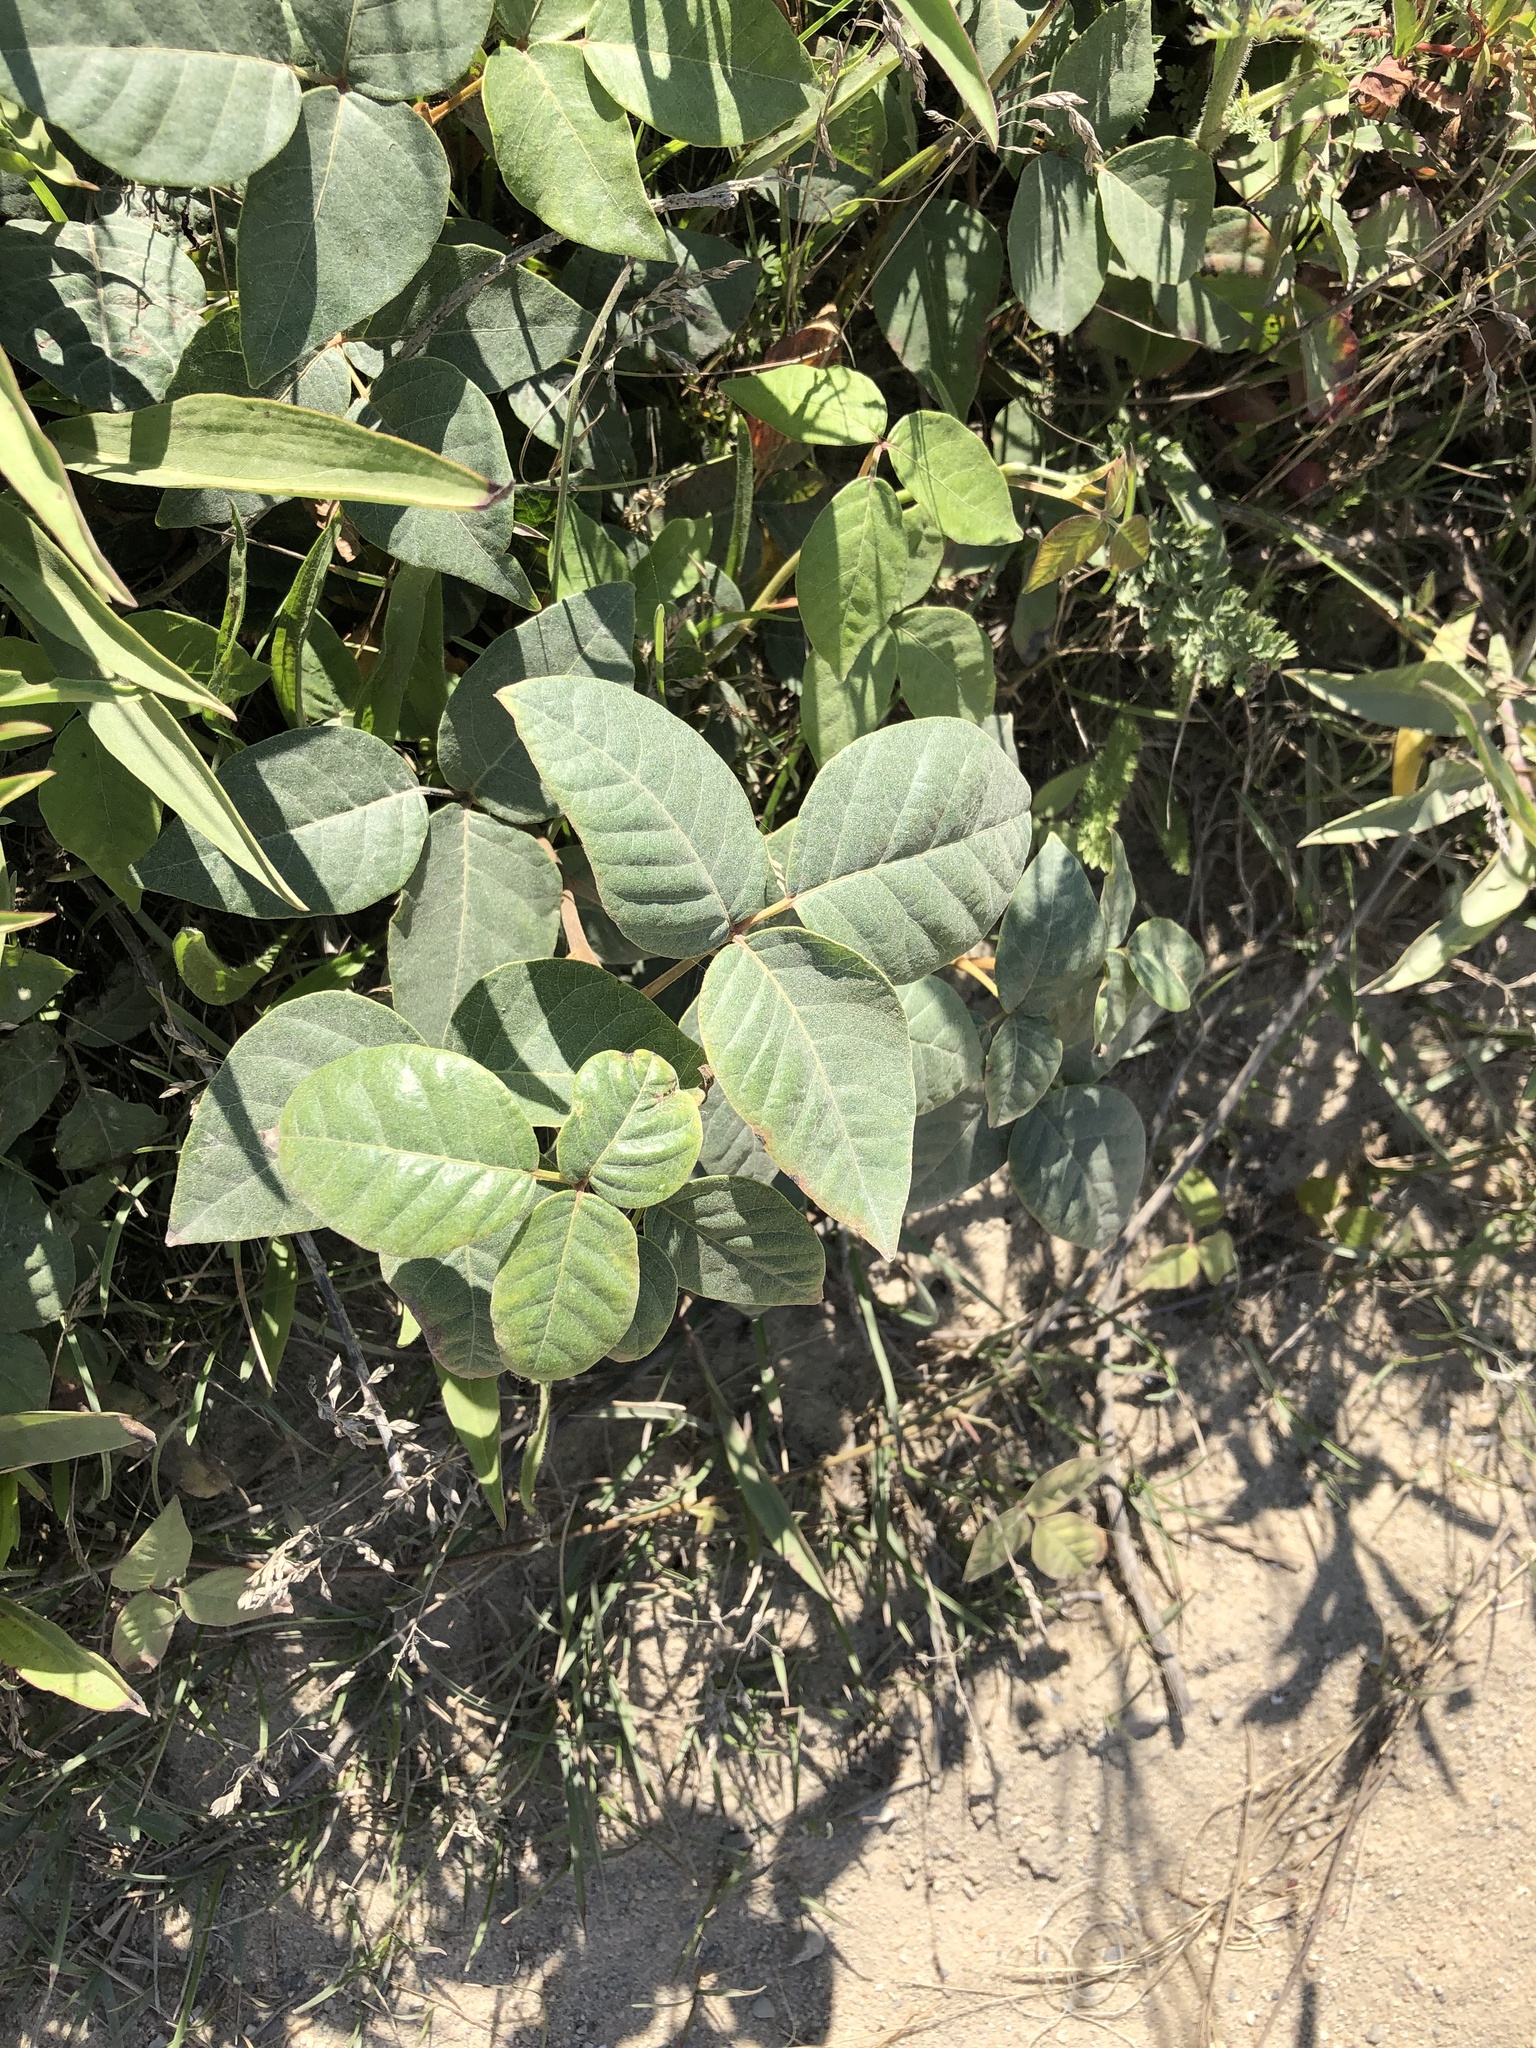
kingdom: Plantae
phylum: Tracheophyta
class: Magnoliopsida
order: Sapindales
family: Anacardiaceae
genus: Toxicodendron
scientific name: Toxicodendron radicans
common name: Poison ivy
